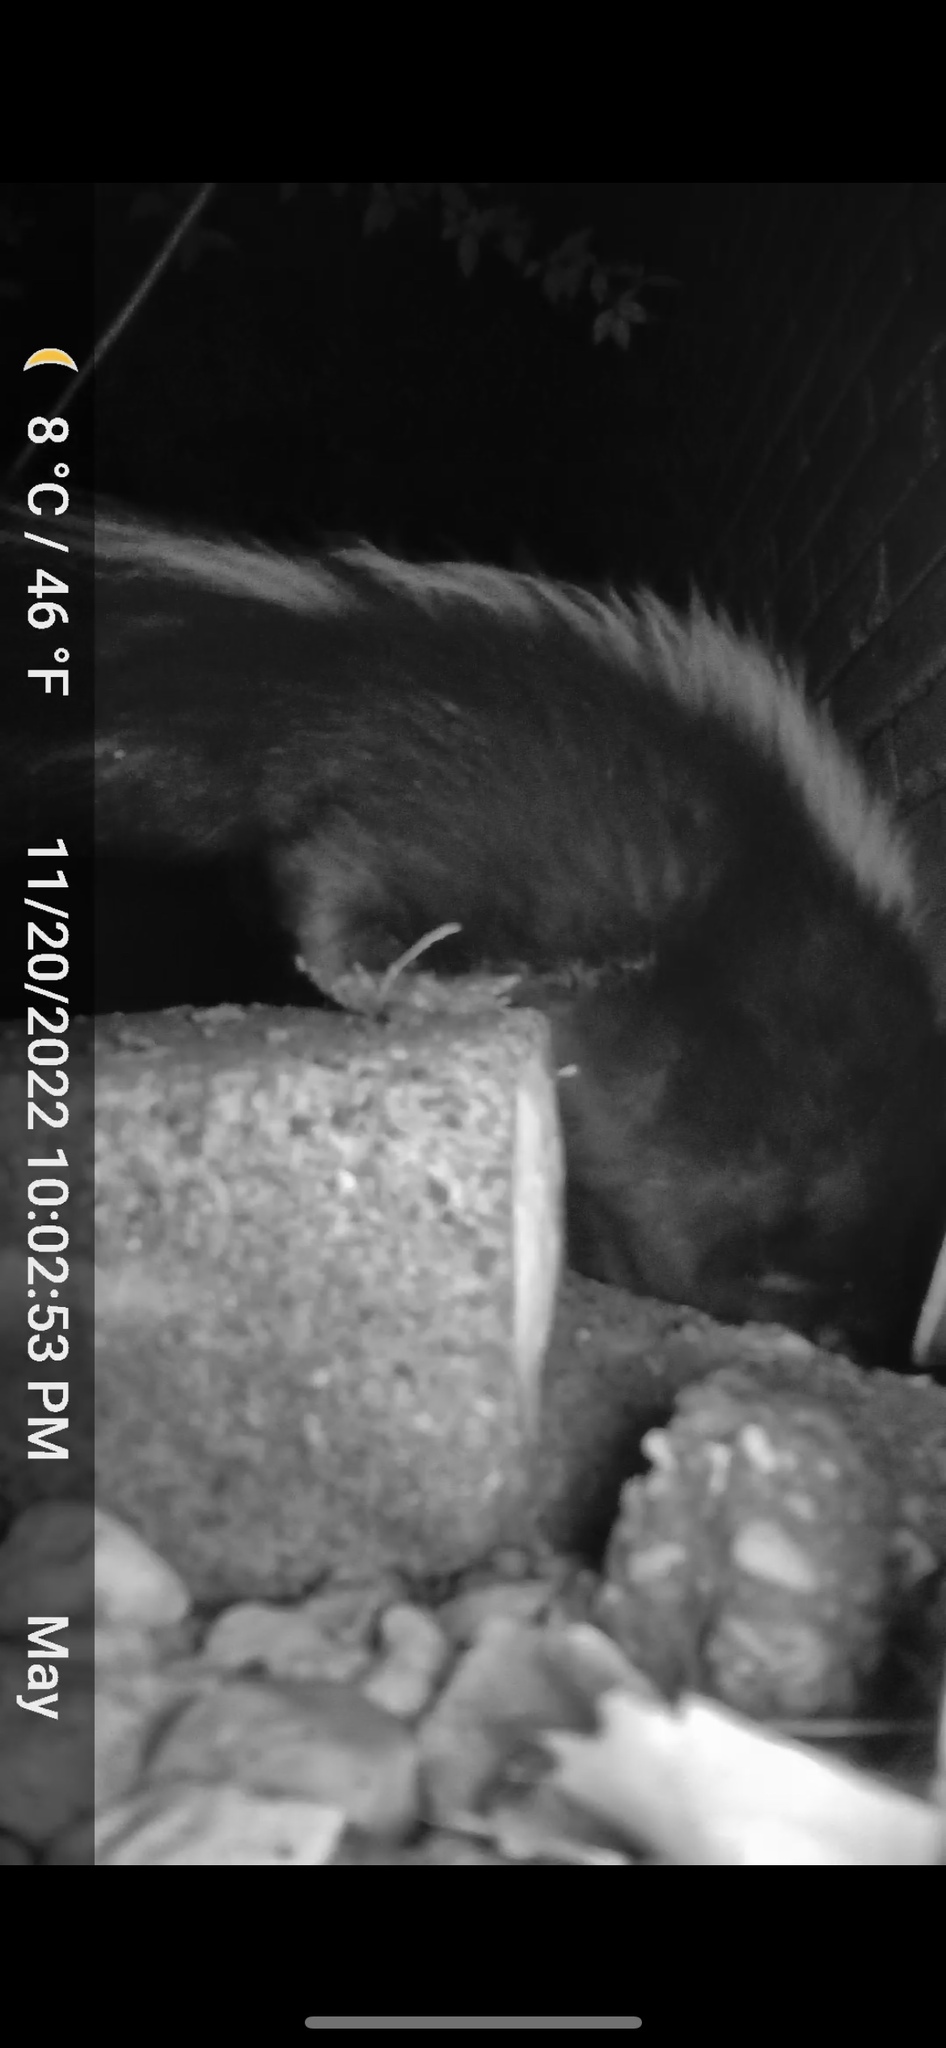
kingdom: Animalia
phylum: Chordata
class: Mammalia
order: Carnivora
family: Mephitidae
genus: Mephitis
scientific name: Mephitis mephitis
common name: Striped skunk
